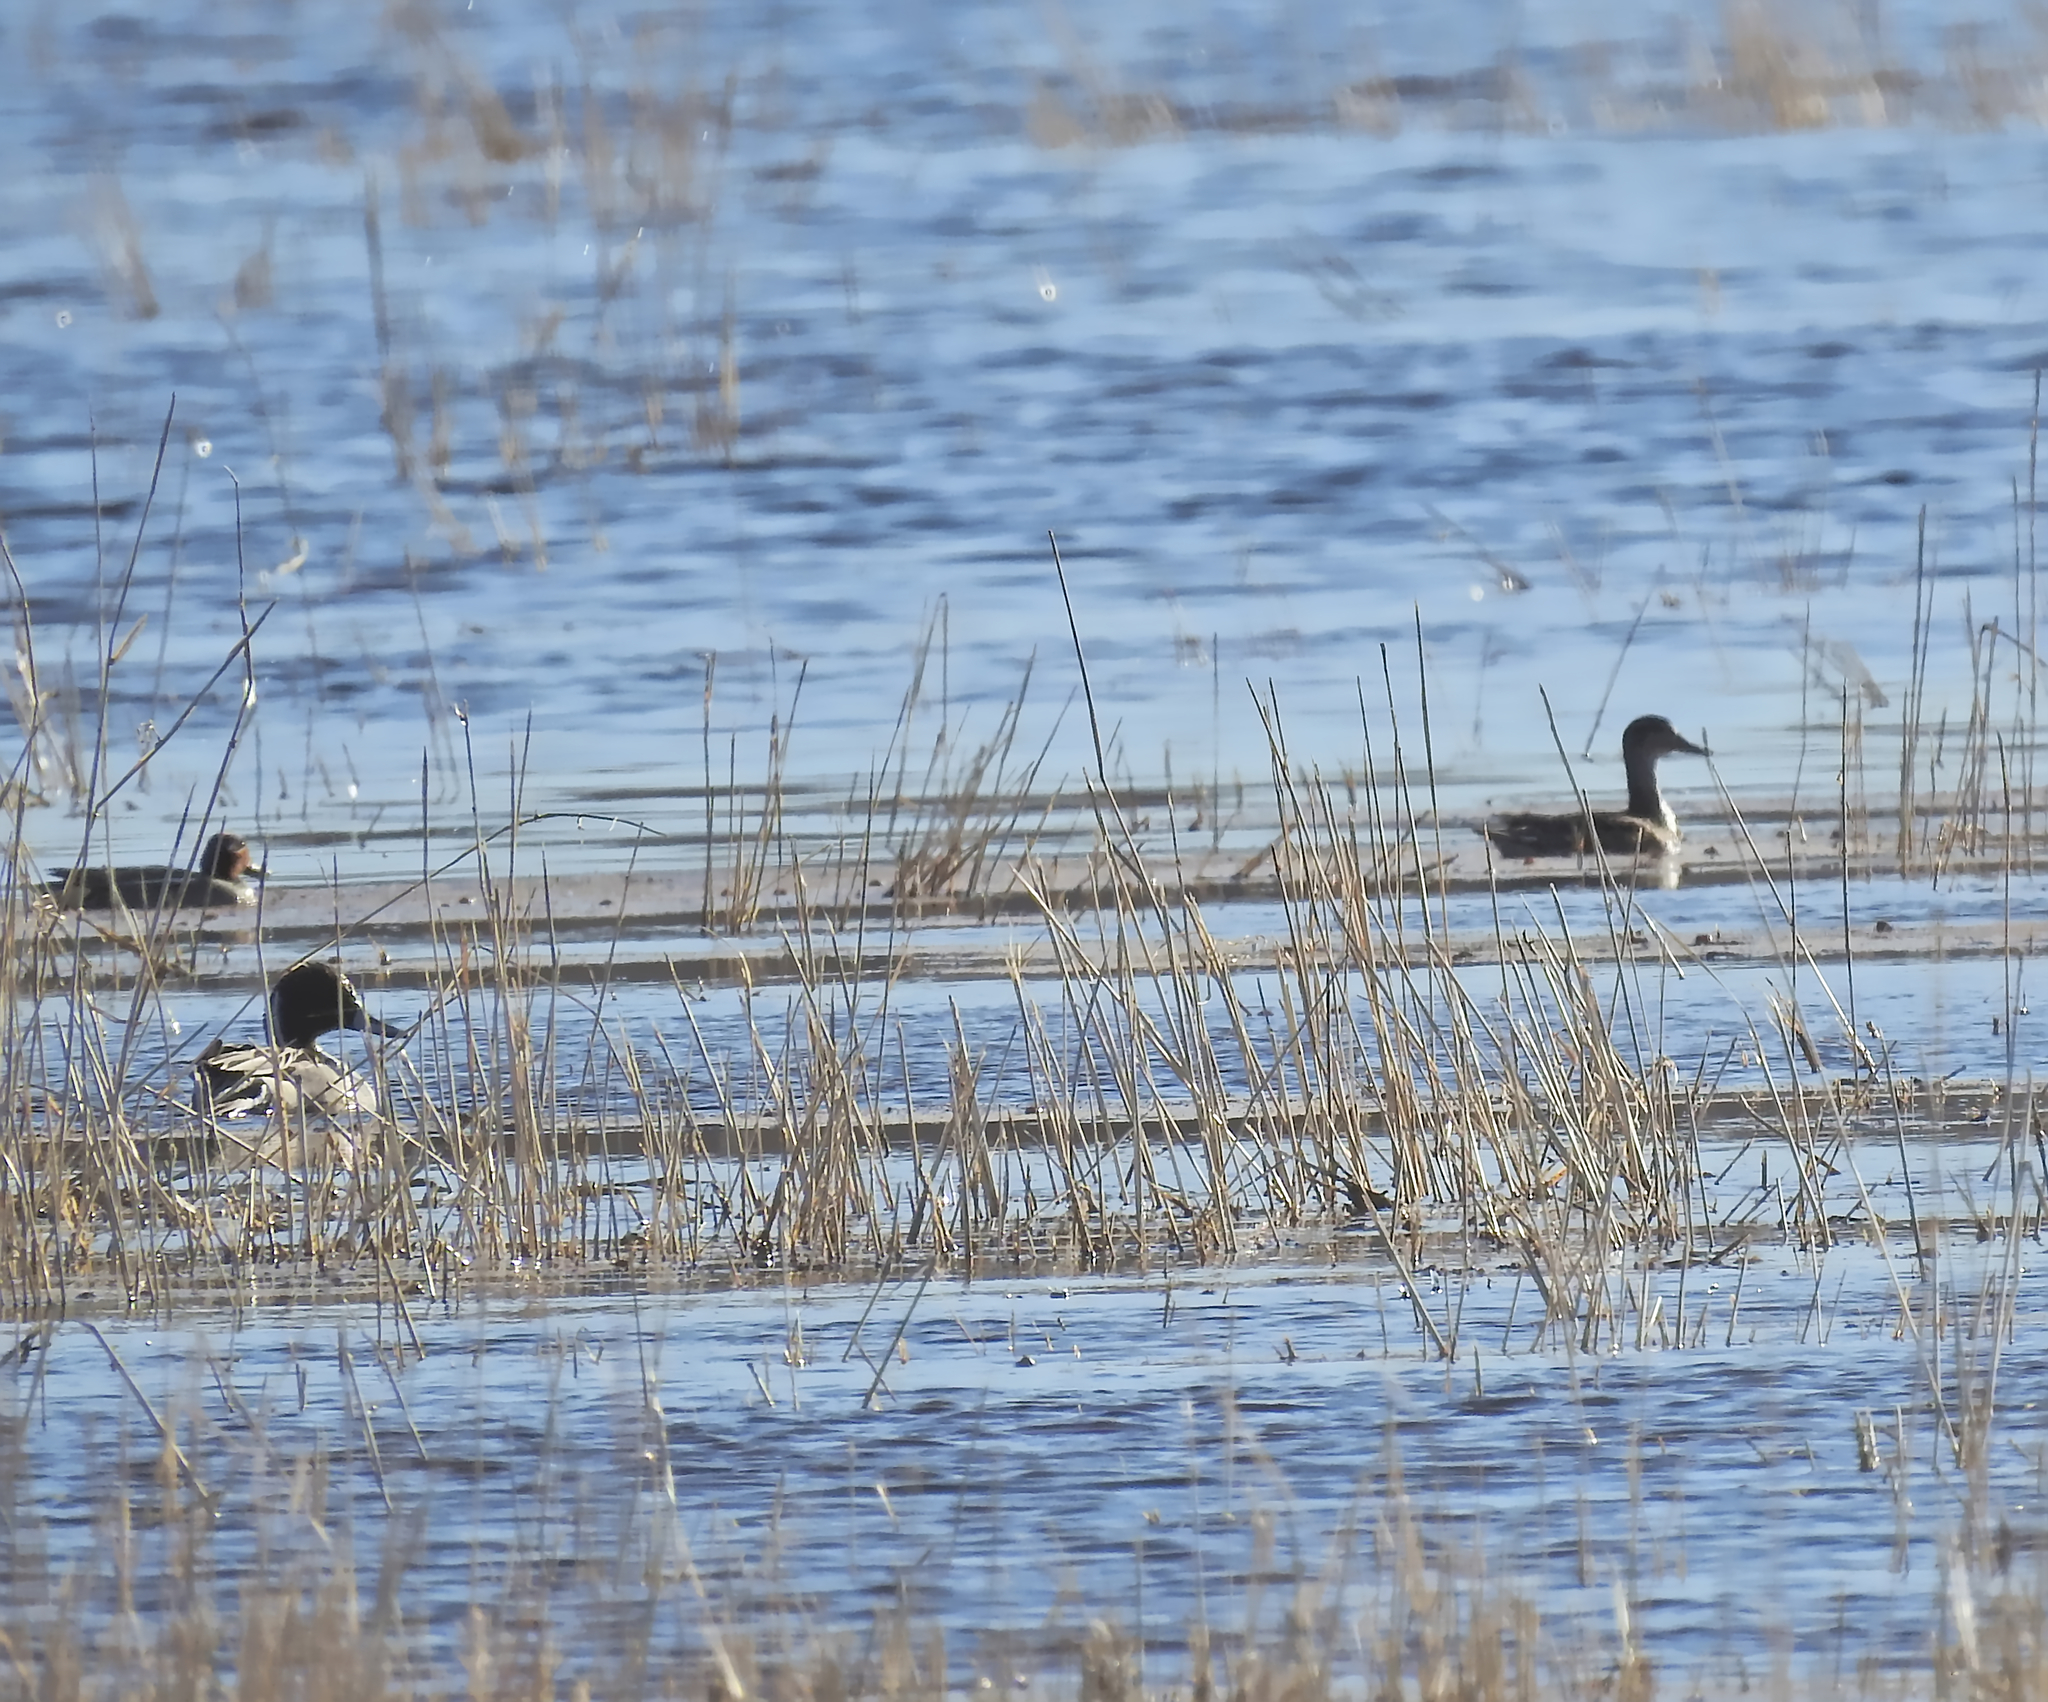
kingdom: Animalia
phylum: Chordata
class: Aves
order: Anseriformes
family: Anatidae
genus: Anas
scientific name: Anas acuta
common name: Northern pintail
